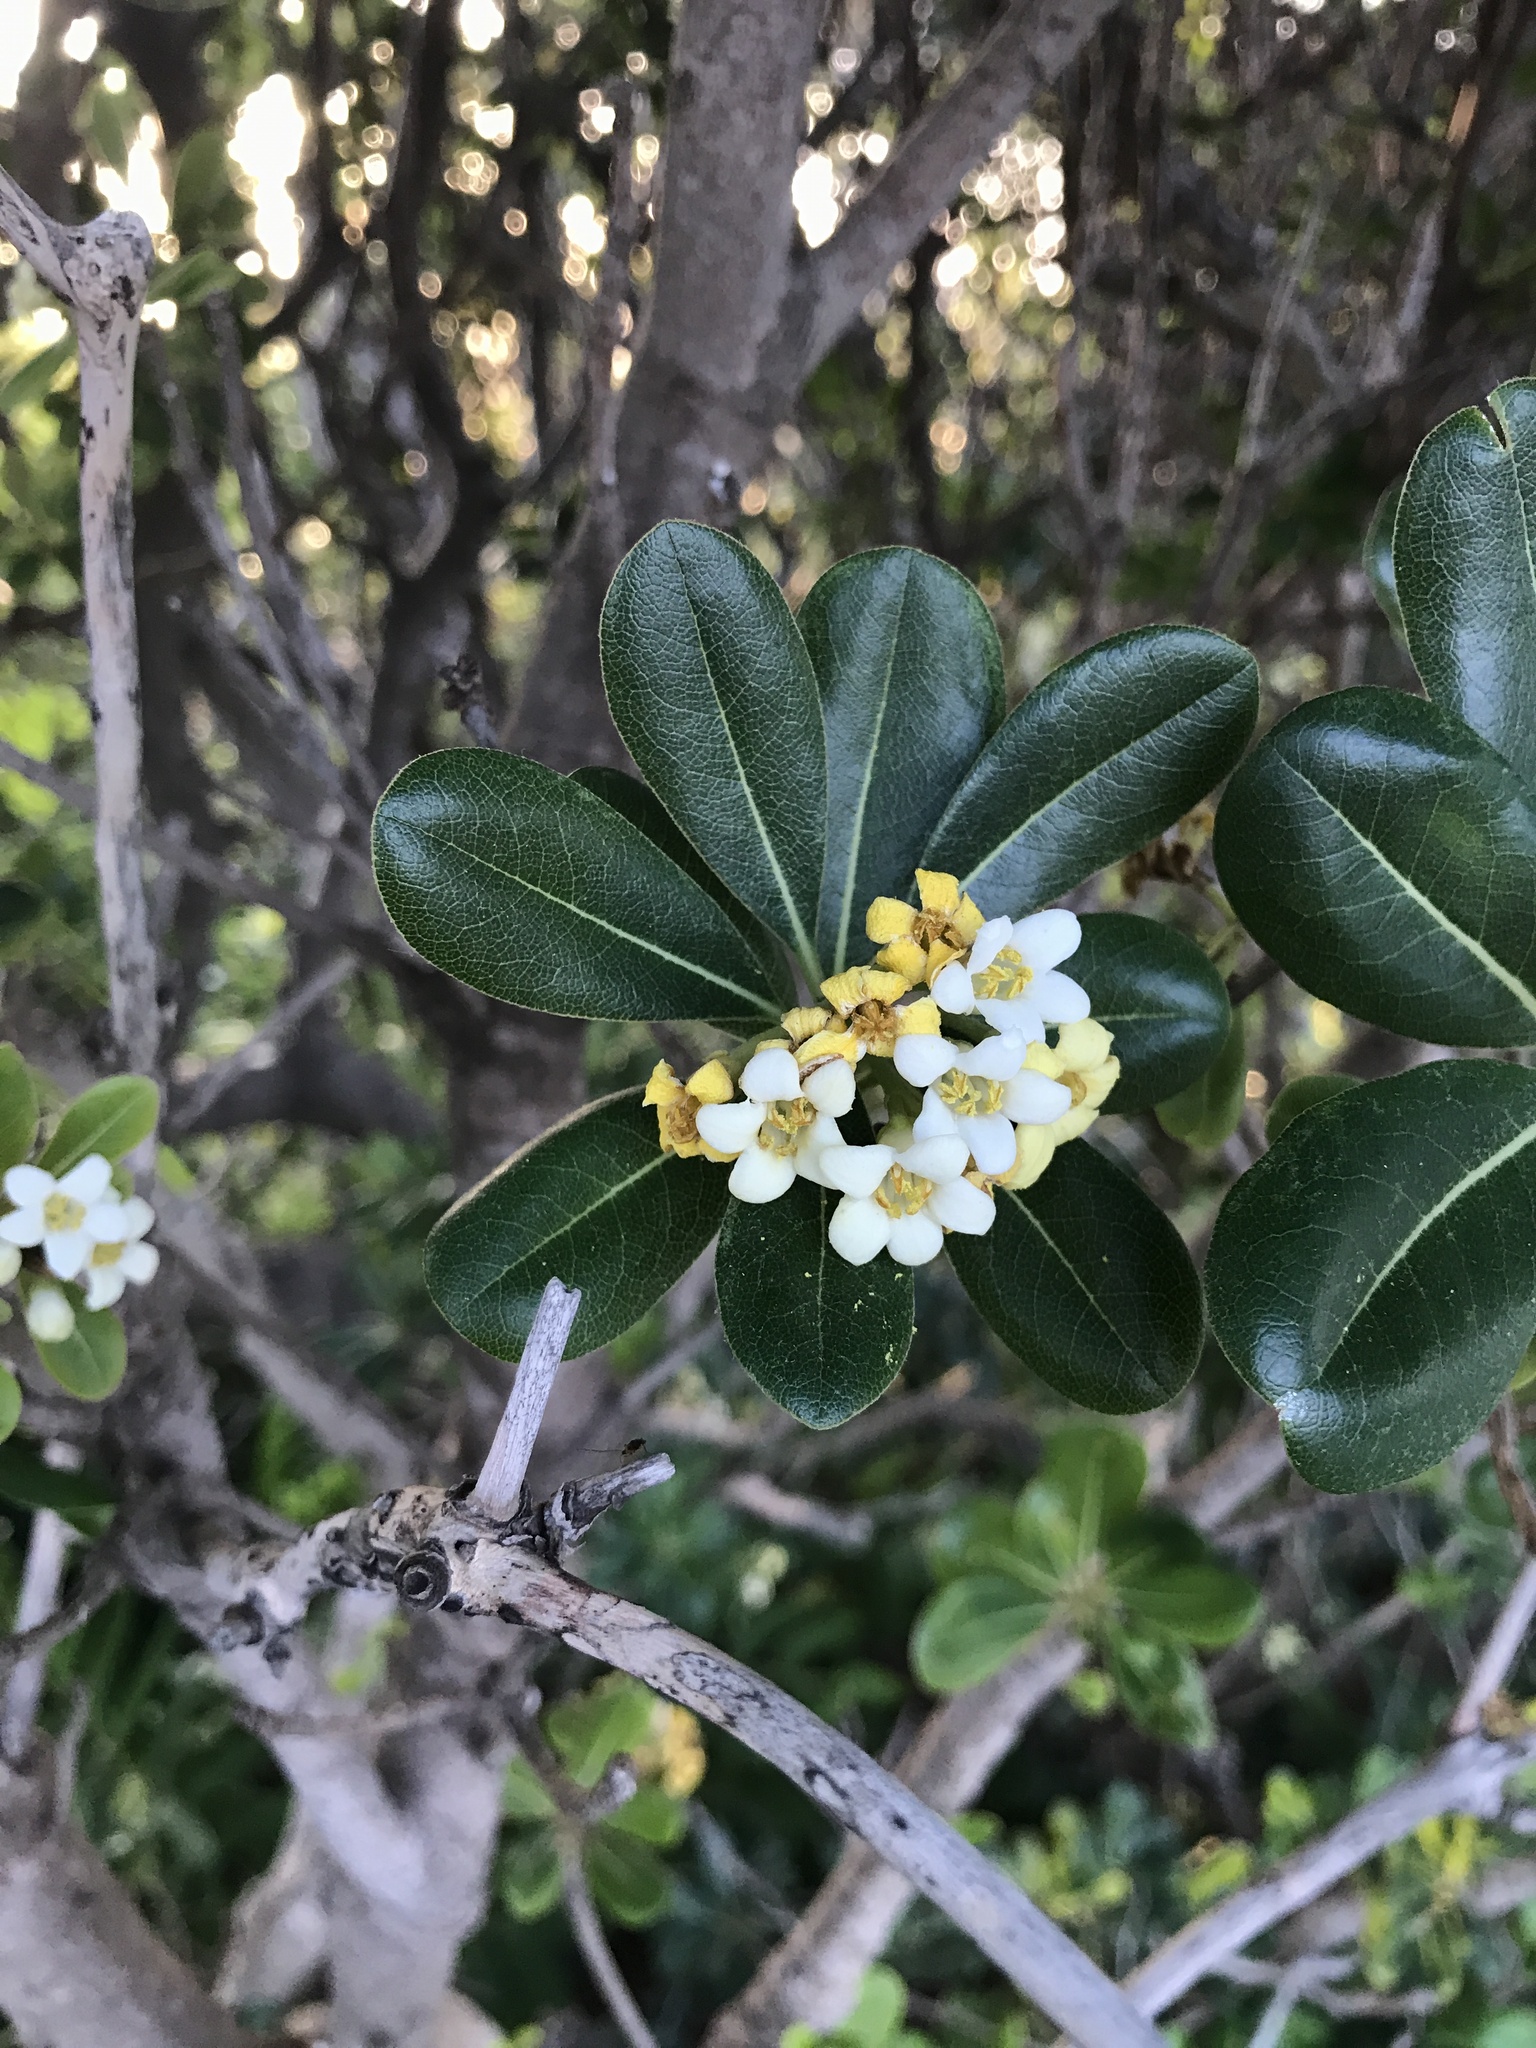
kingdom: Plantae
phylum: Tracheophyta
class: Magnoliopsida
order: Apiales
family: Pittosporaceae
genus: Pittosporum
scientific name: Pittosporum tobira
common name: Japanese cheesewood
